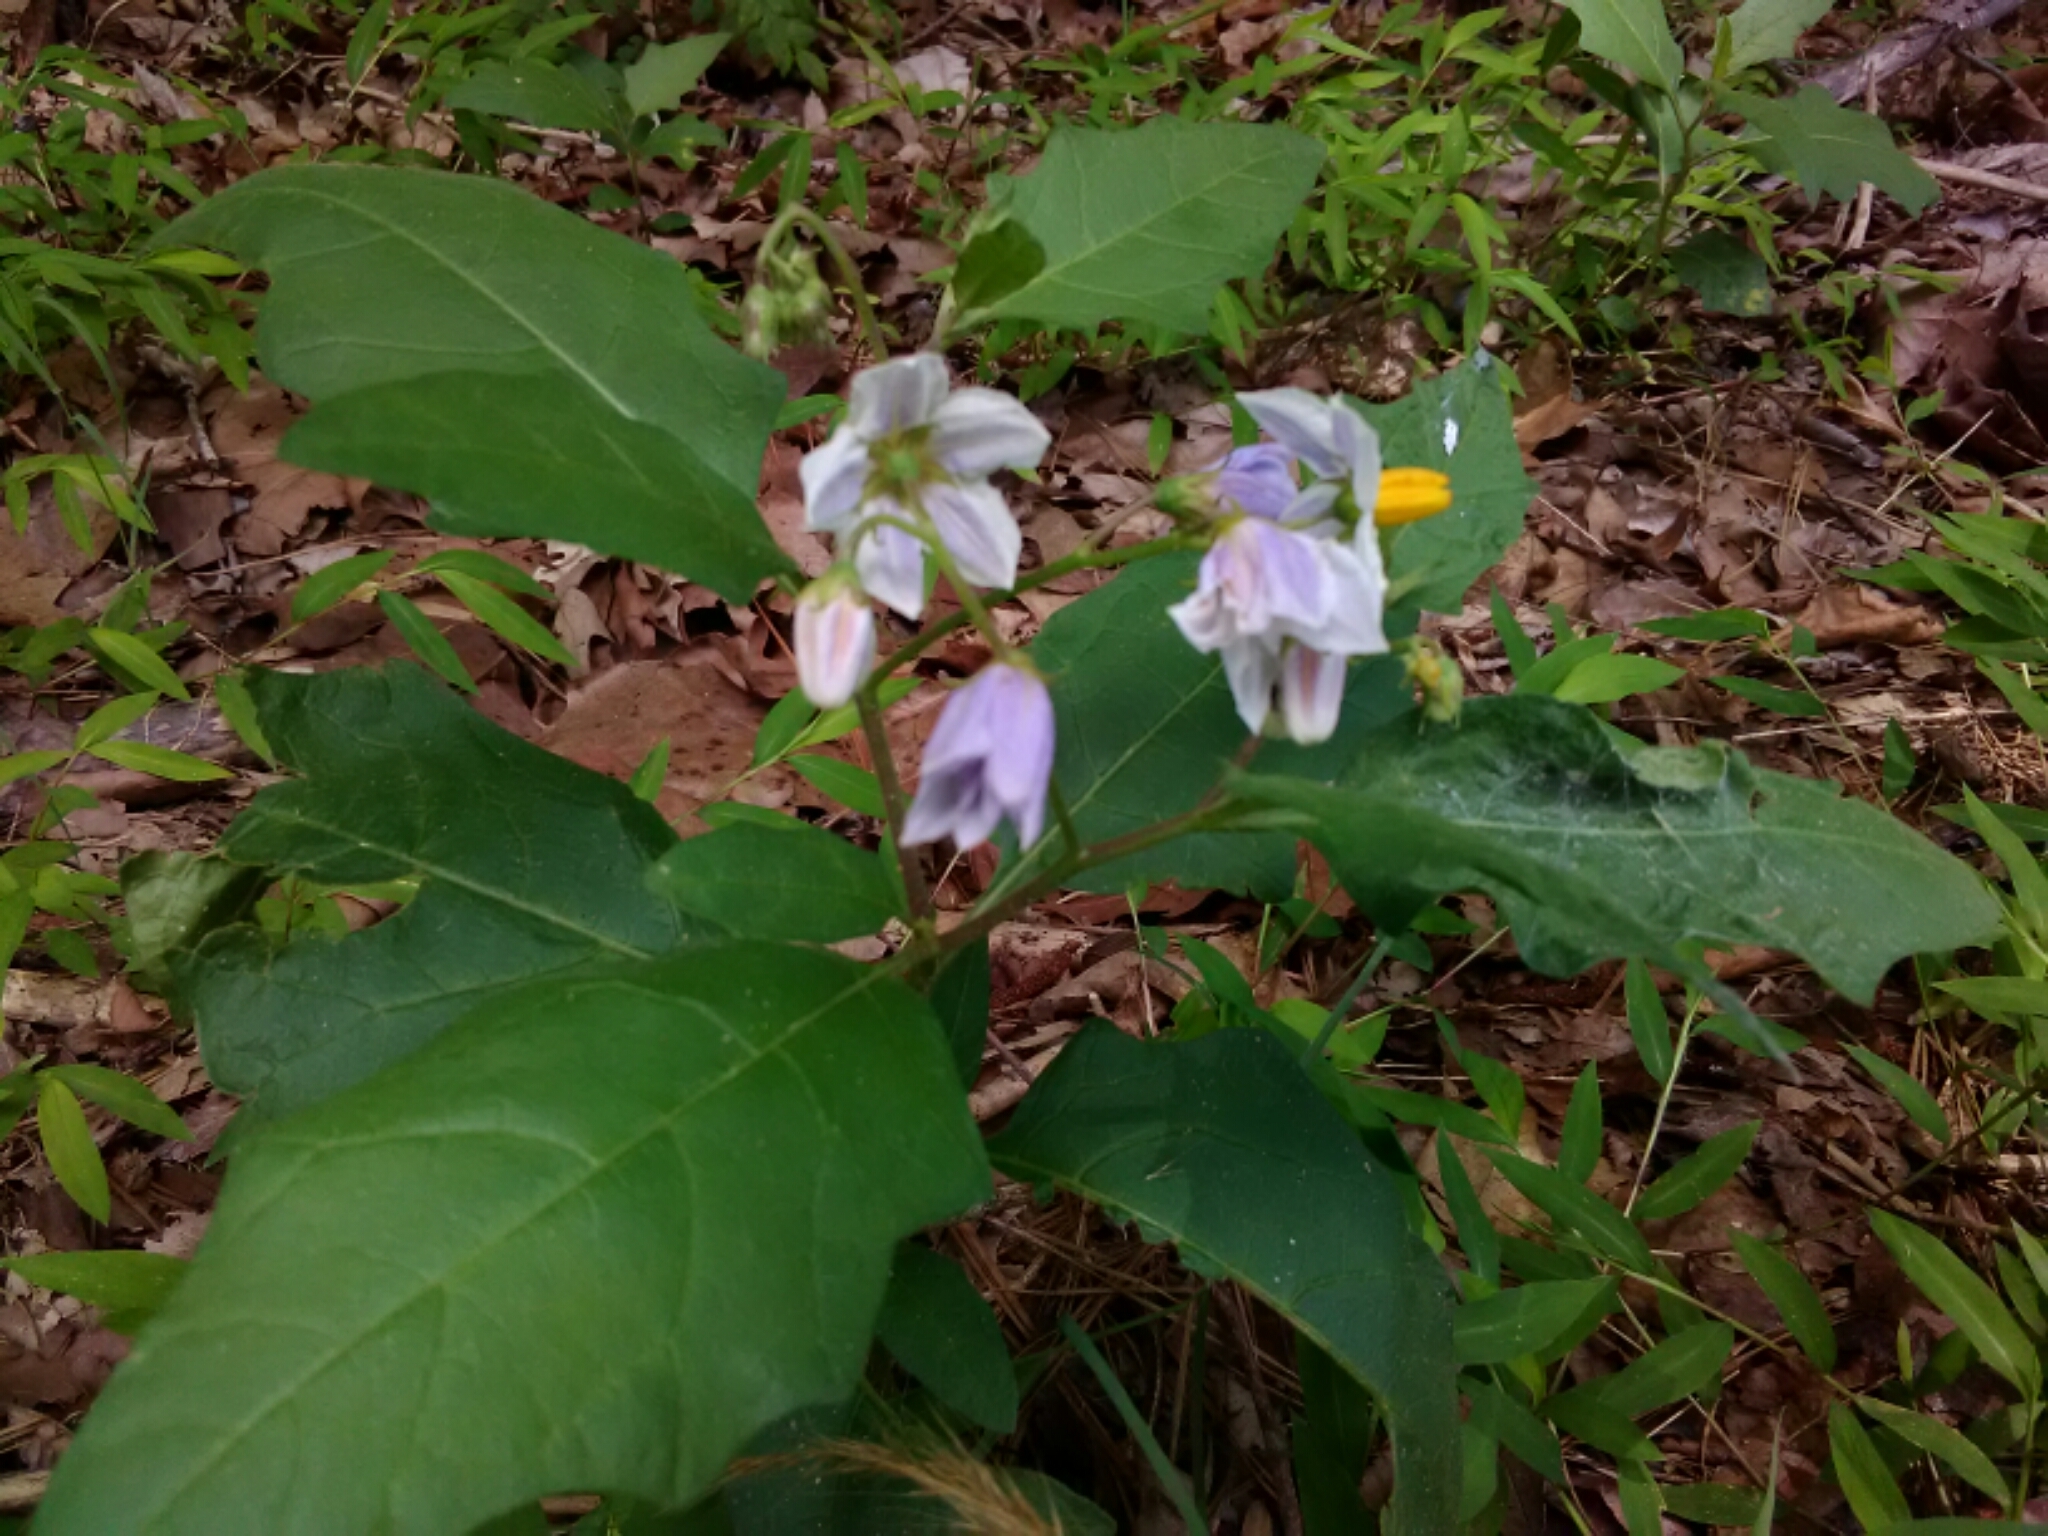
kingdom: Plantae
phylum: Tracheophyta
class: Magnoliopsida
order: Solanales
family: Solanaceae
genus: Solanum
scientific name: Solanum carolinense
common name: Horse-nettle
